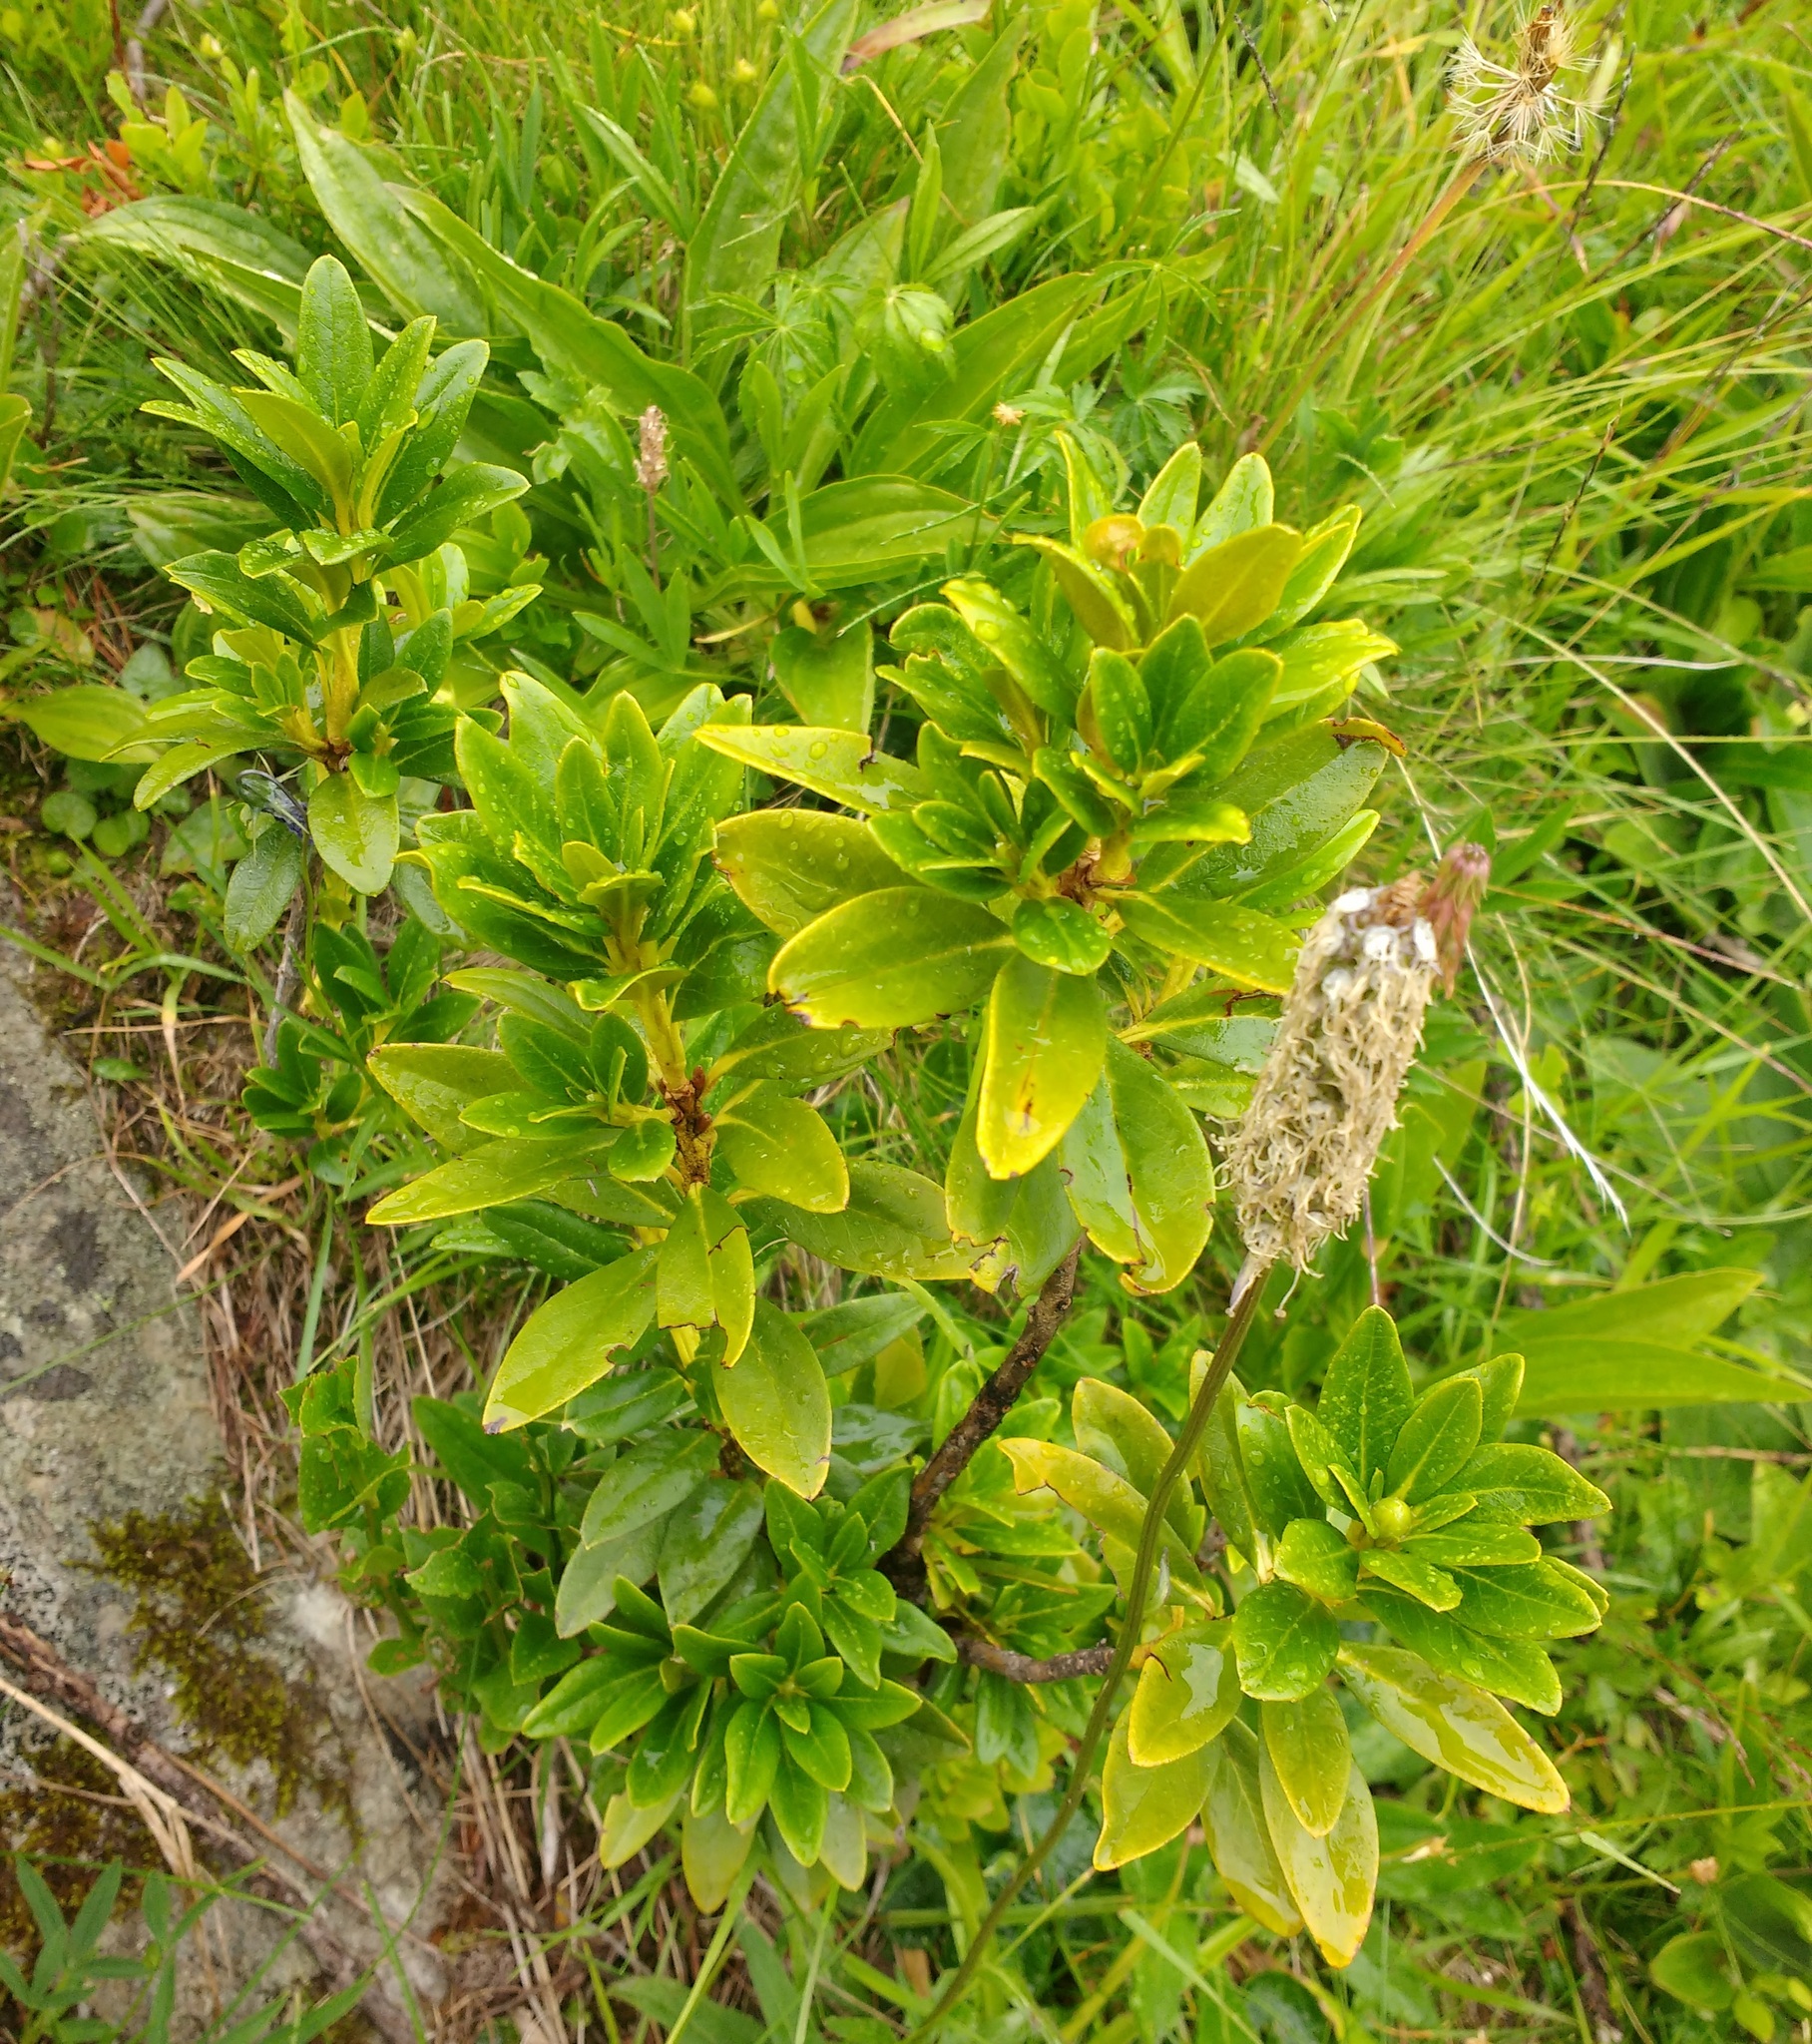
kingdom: Plantae
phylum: Tracheophyta
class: Magnoliopsida
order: Ericales
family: Ericaceae
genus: Rhododendron
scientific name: Rhododendron ferrugineum
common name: Alpenrose
